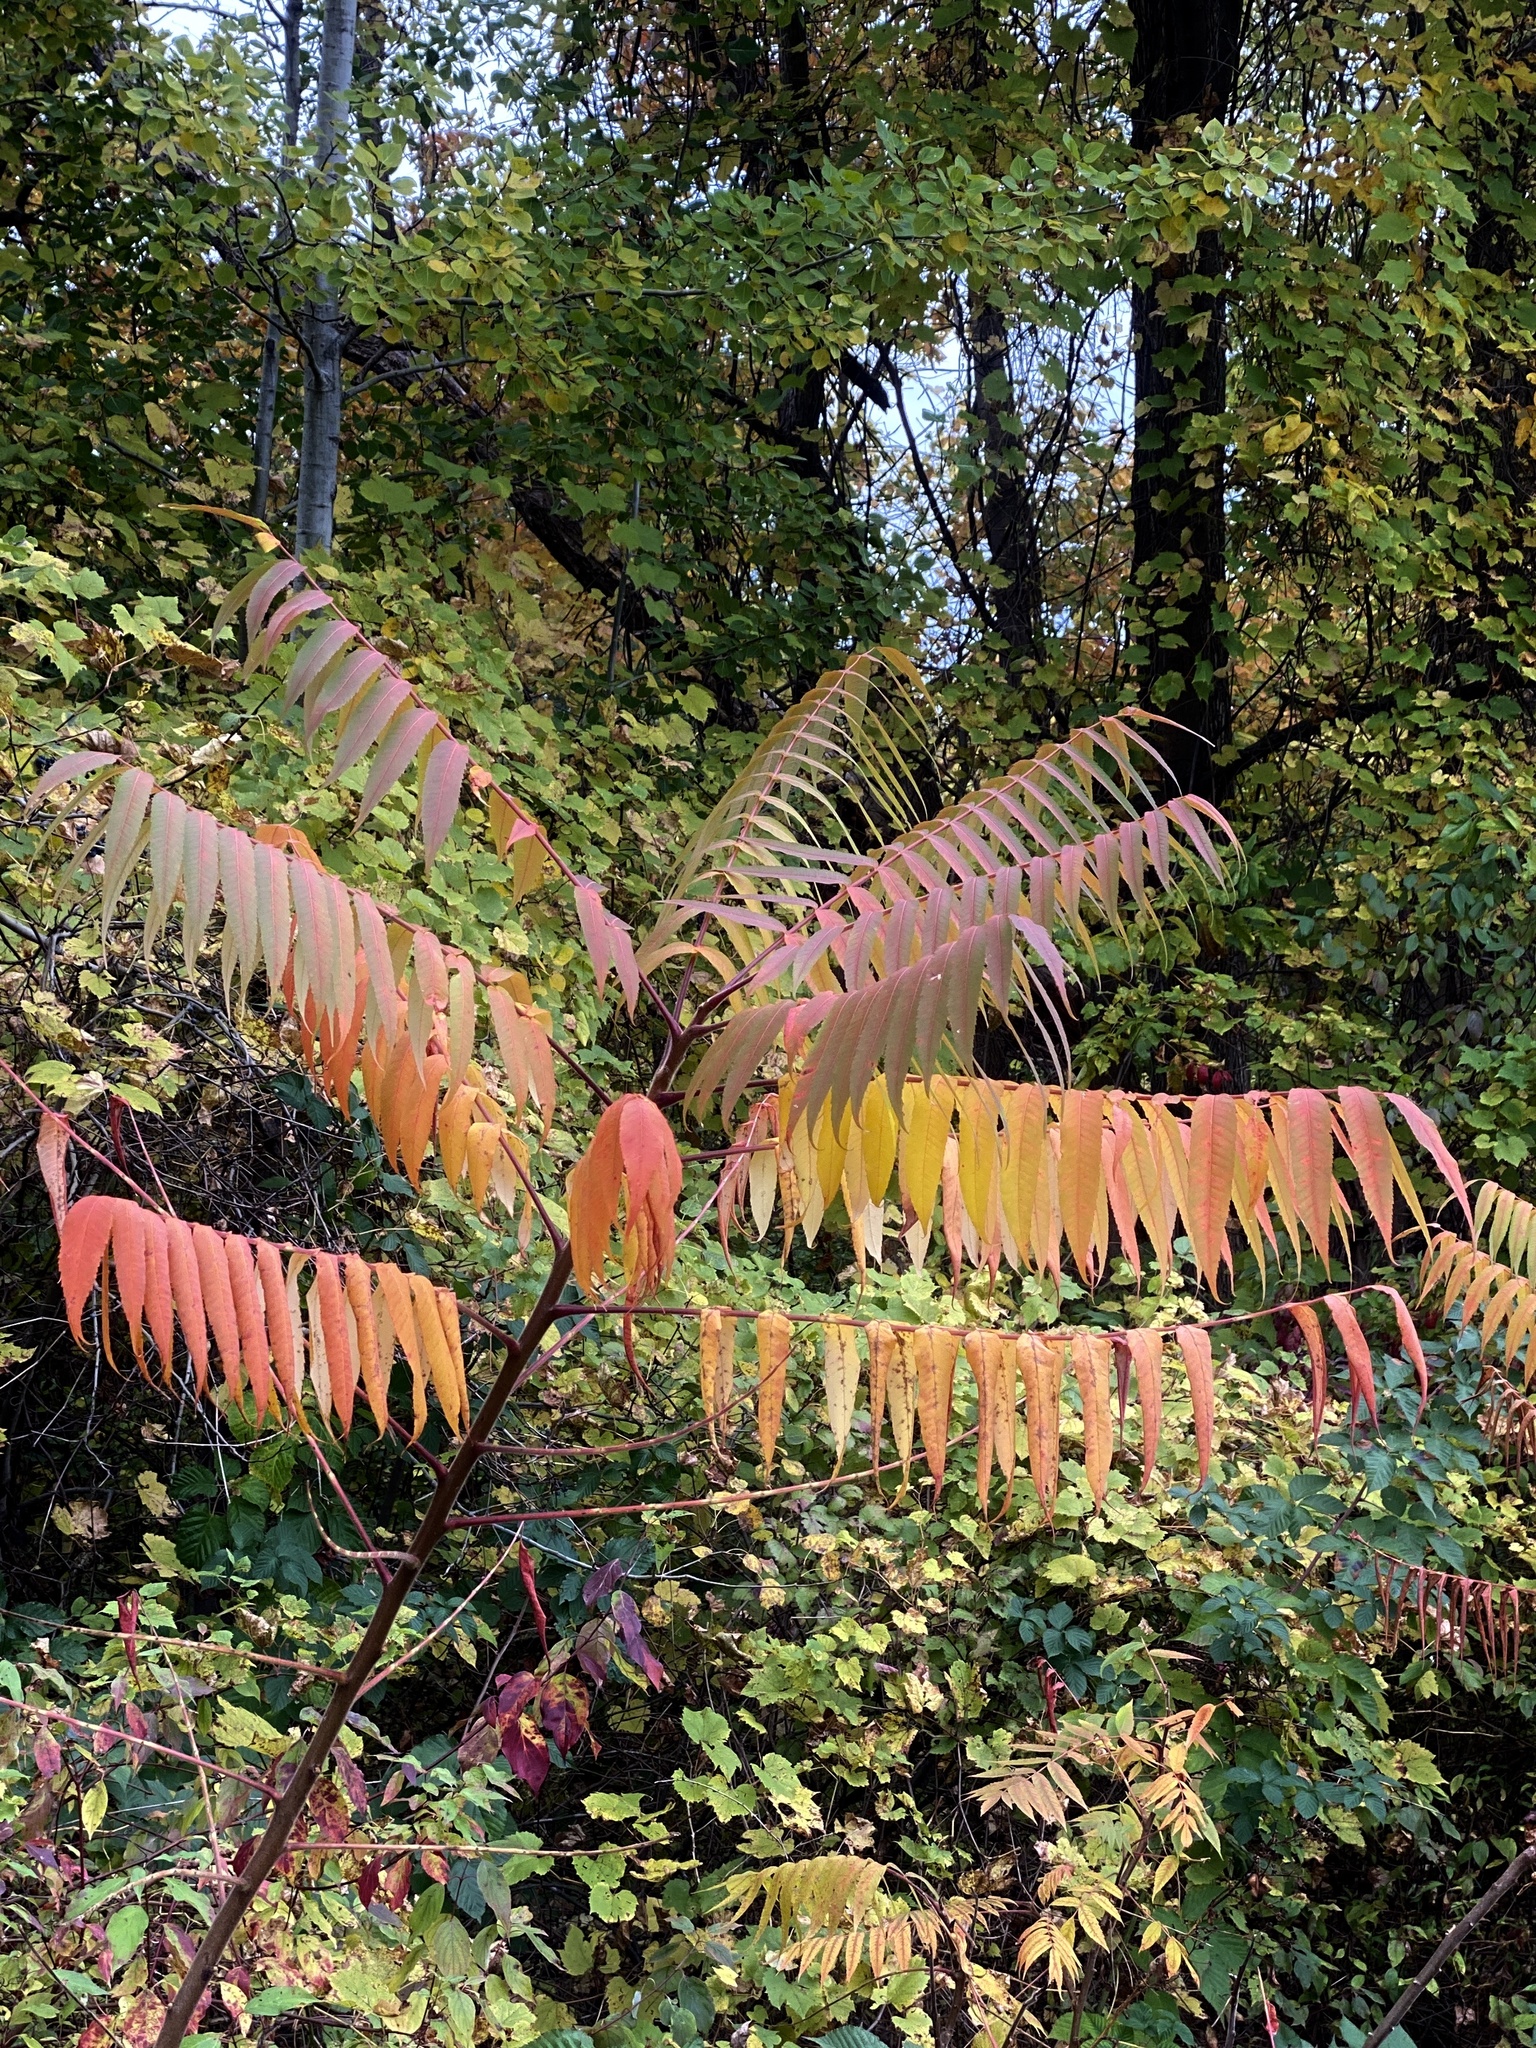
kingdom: Plantae
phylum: Tracheophyta
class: Magnoliopsida
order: Sapindales
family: Anacardiaceae
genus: Rhus
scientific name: Rhus typhina
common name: Staghorn sumac
